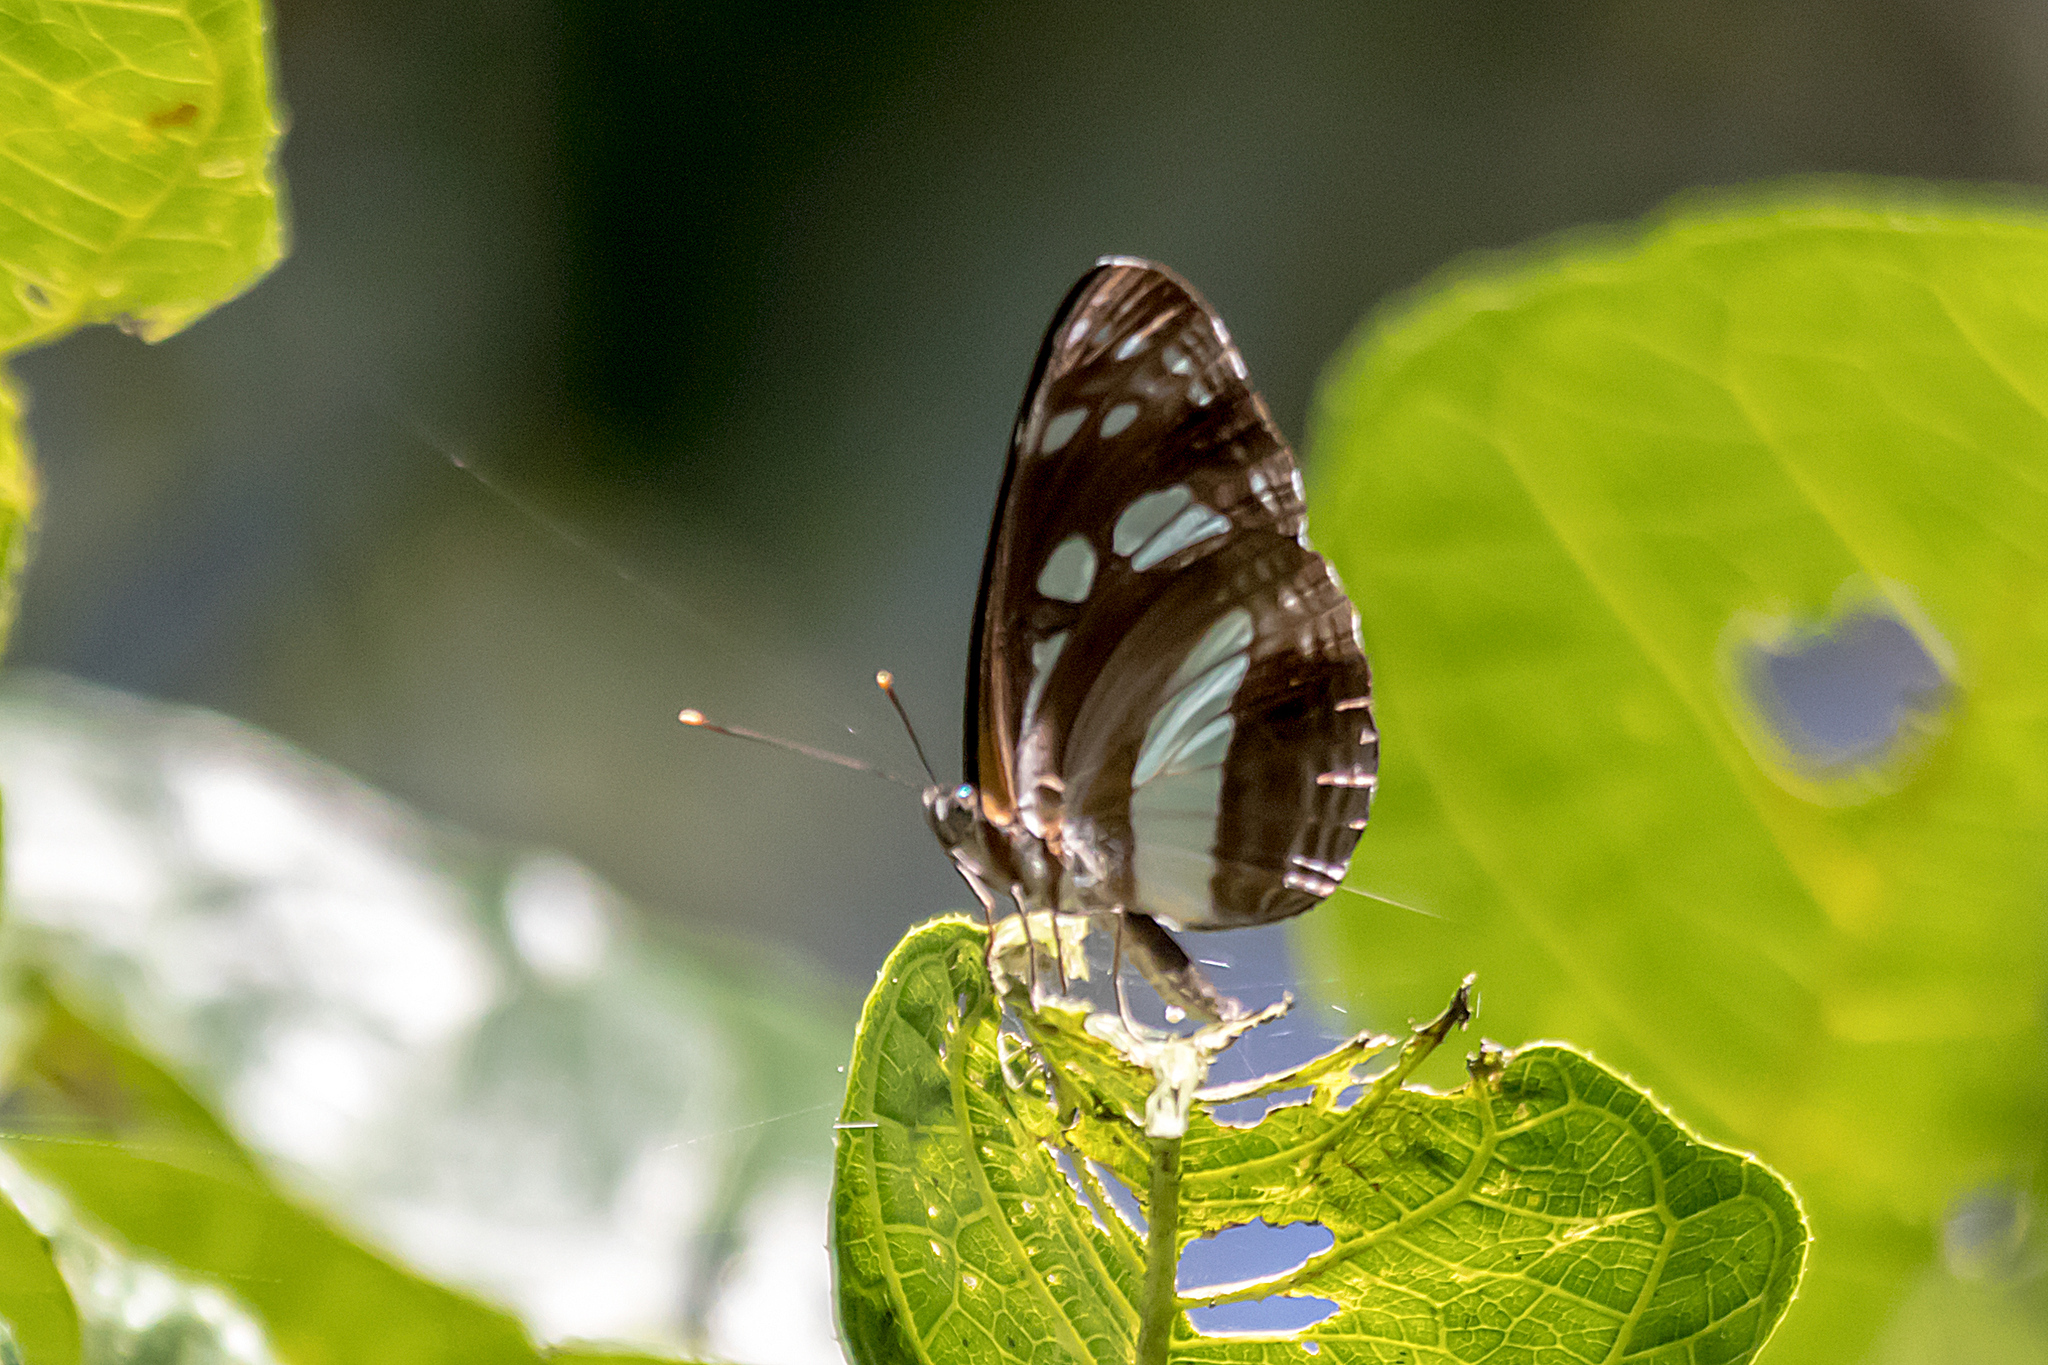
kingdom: Animalia
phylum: Arthropoda
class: Insecta
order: Lepidoptera
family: Nymphalidae
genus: Phaedyma
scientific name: Phaedyma shepherdi
